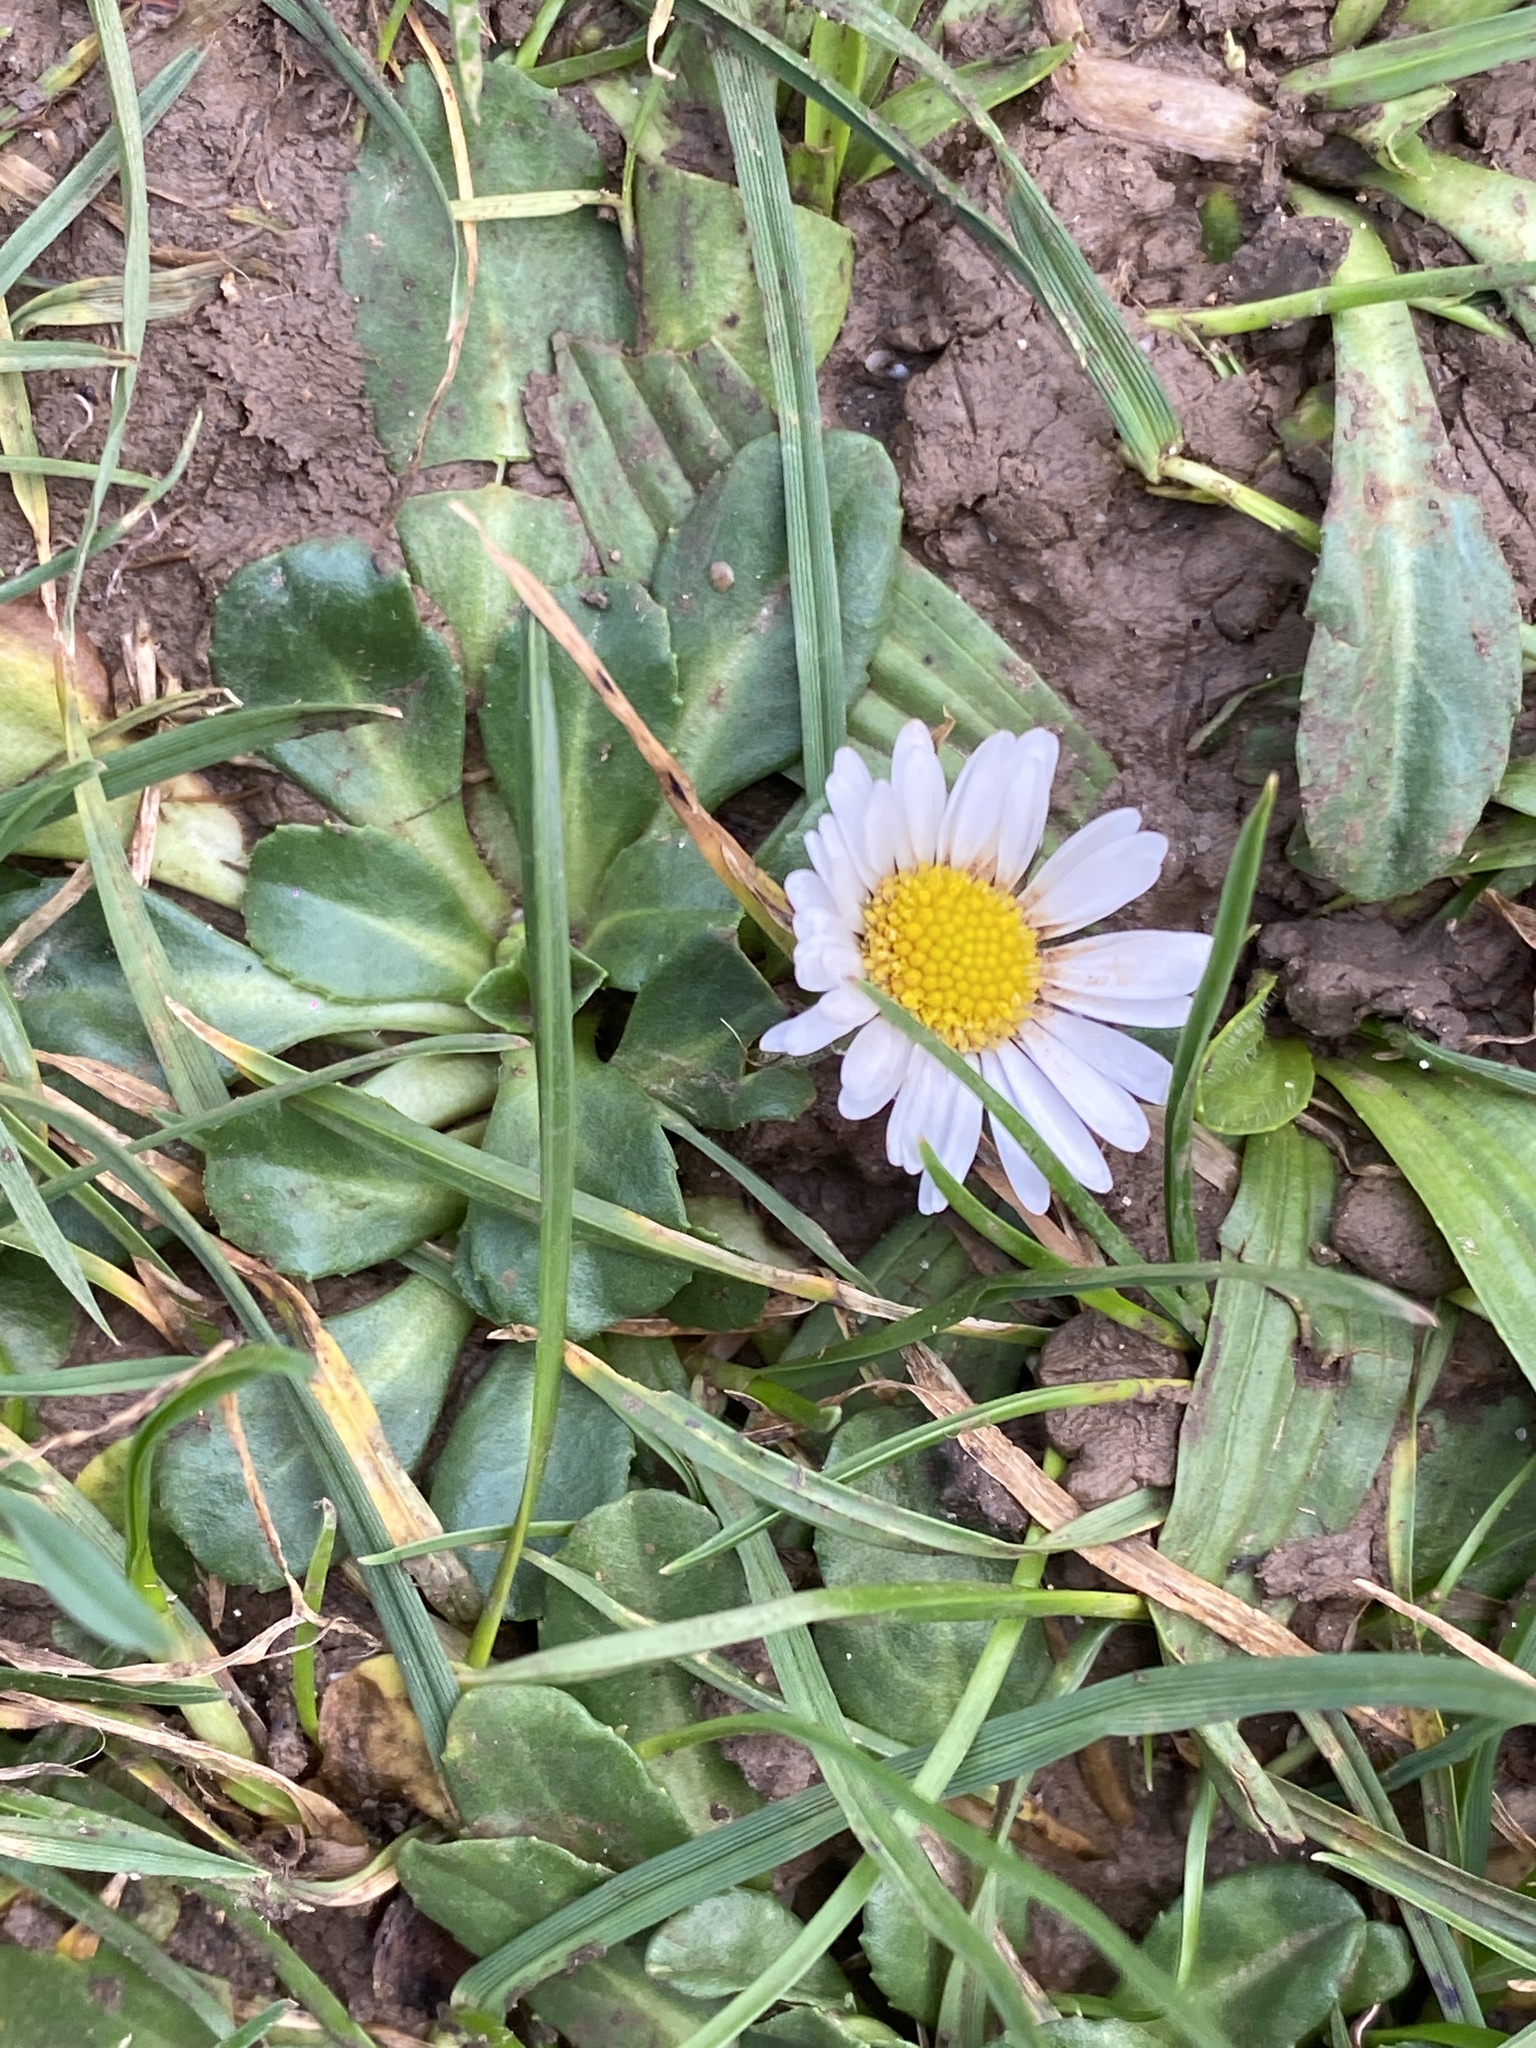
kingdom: Plantae
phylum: Tracheophyta
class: Magnoliopsida
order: Asterales
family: Asteraceae
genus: Bellis
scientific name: Bellis perennis
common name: Lawndaisy
